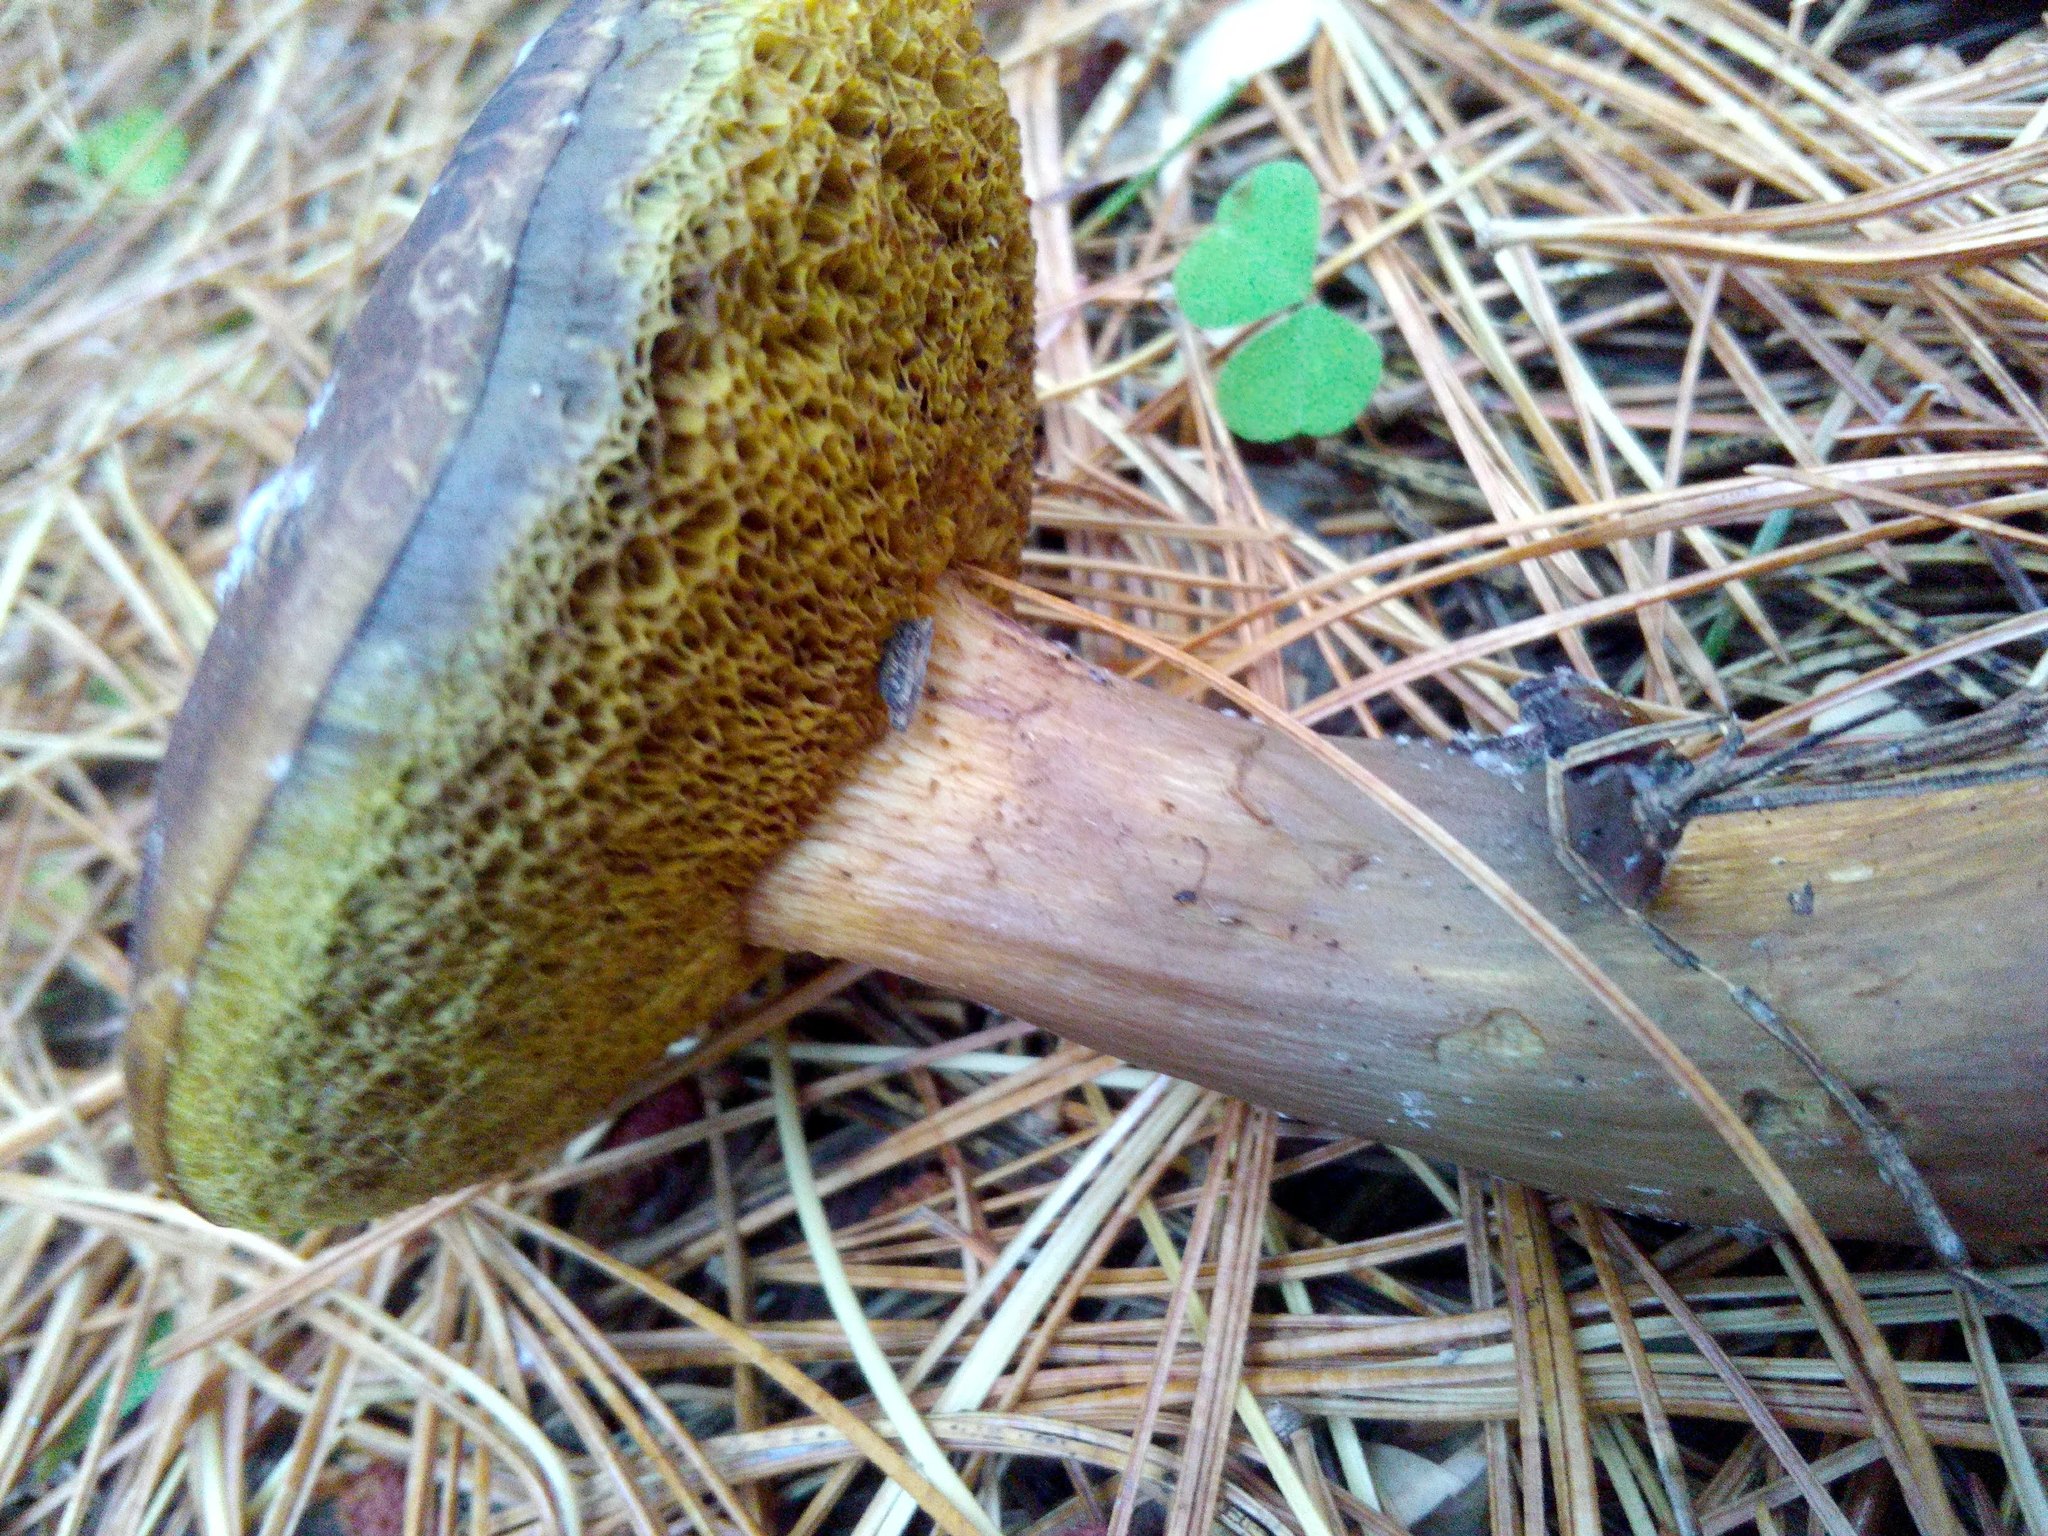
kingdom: Fungi
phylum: Basidiomycota
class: Agaricomycetes
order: Boletales
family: Boletaceae
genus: Xerocomus
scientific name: Xerocomus subtomentosus
